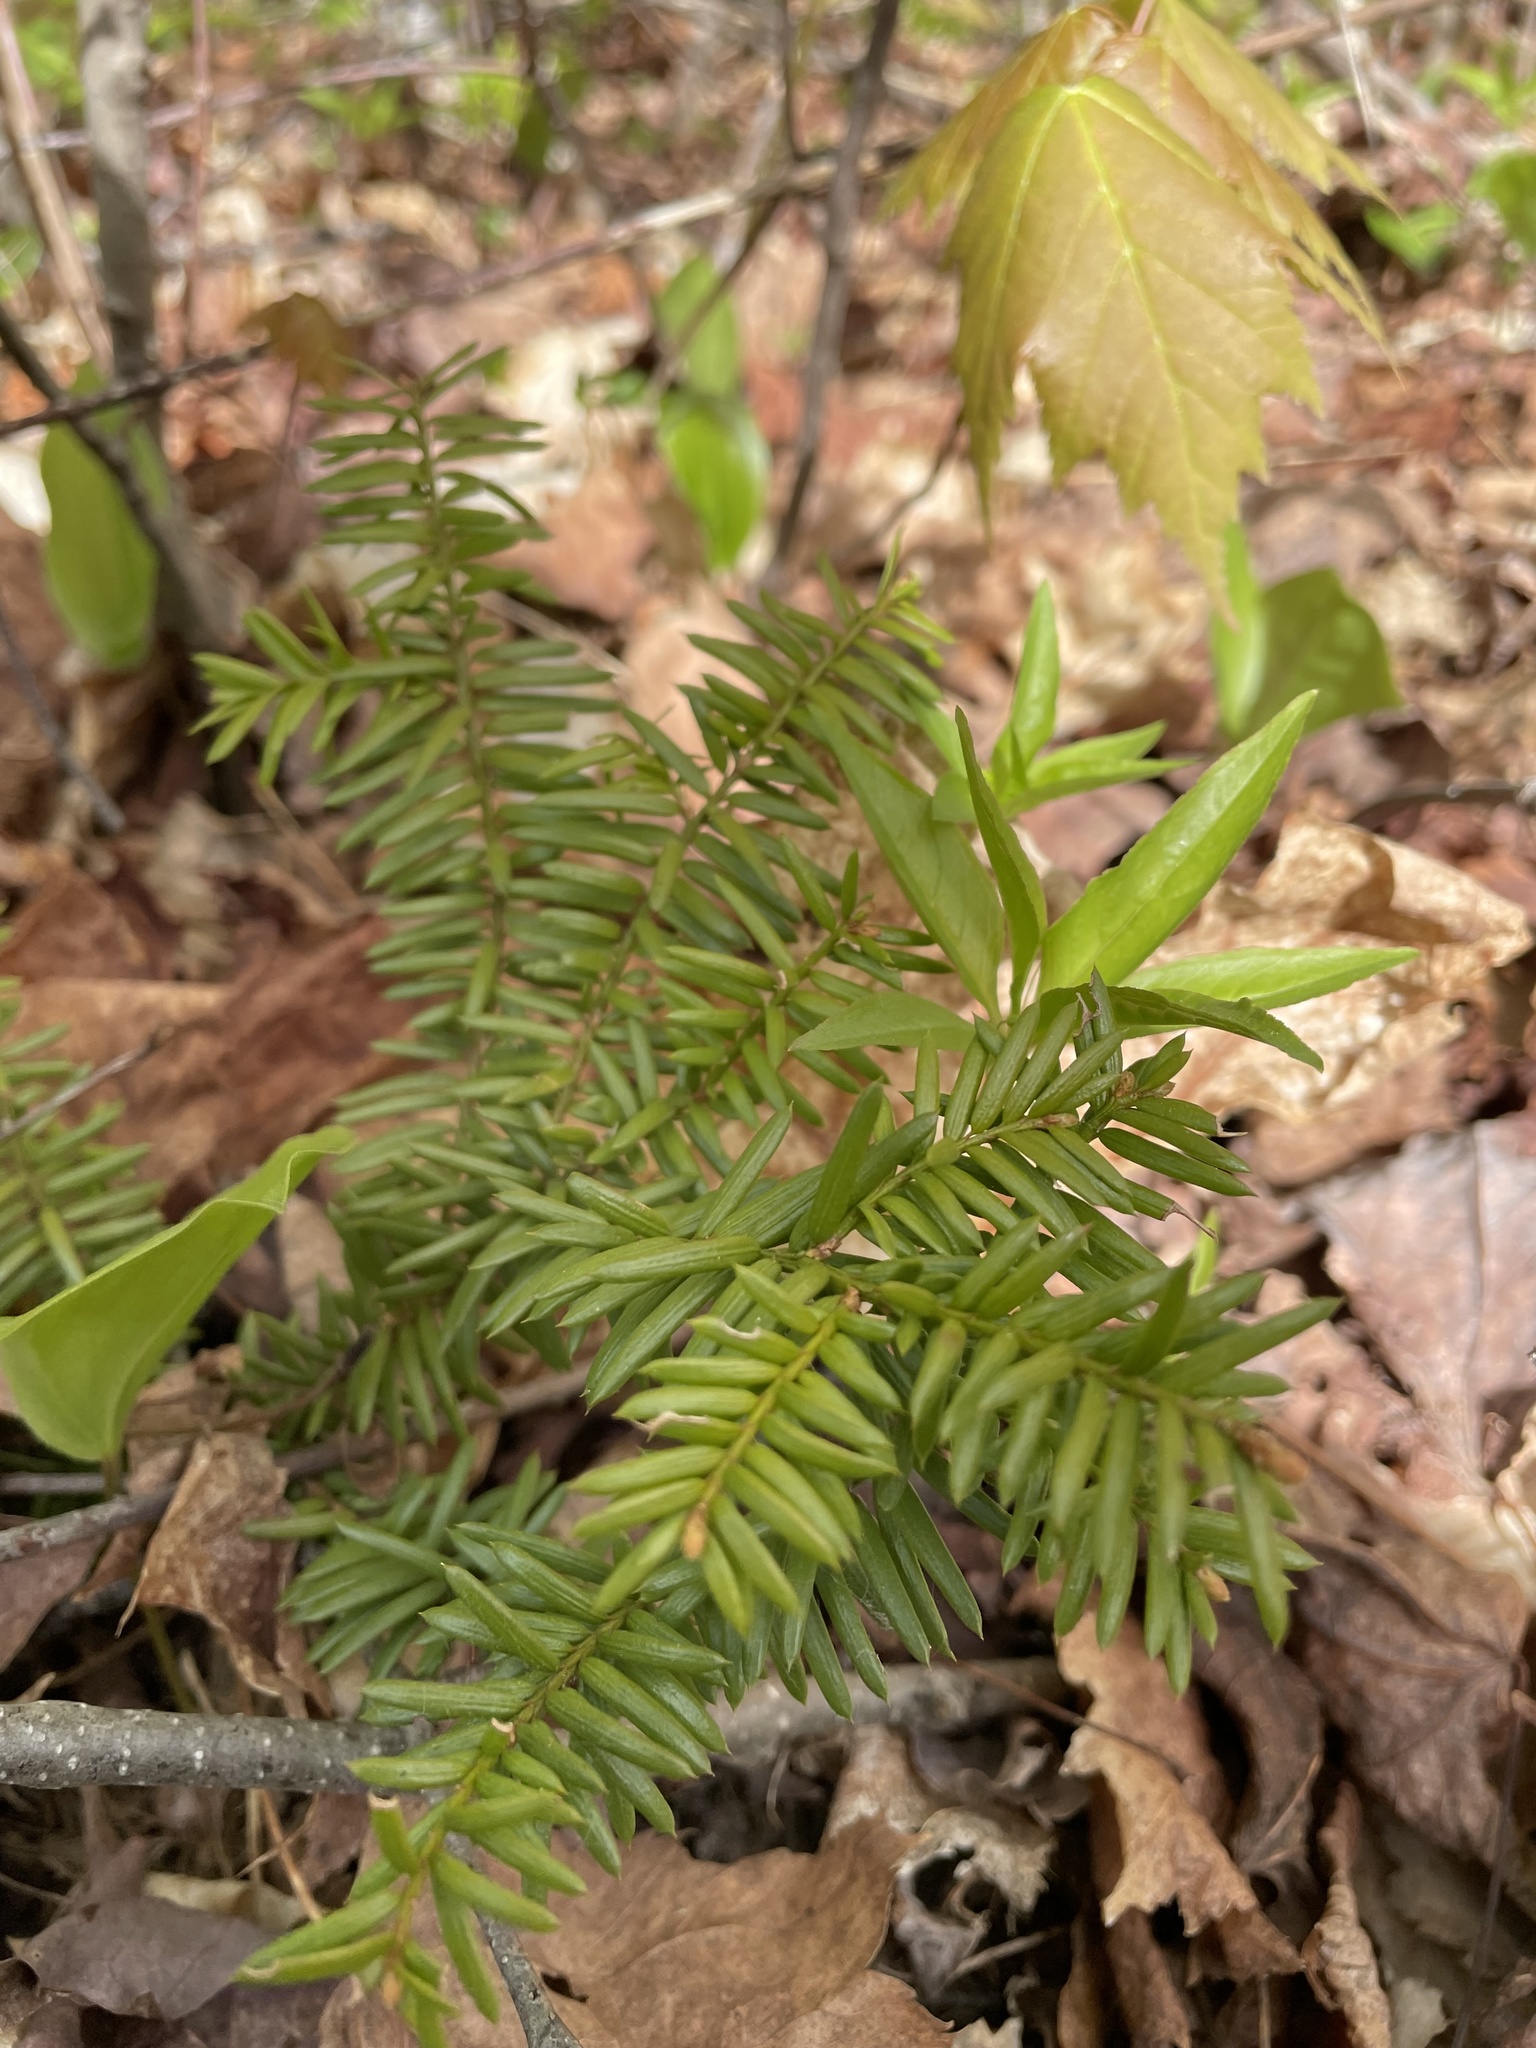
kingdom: Plantae
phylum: Tracheophyta
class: Pinopsida
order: Pinales
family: Taxaceae
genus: Taxus
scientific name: Taxus canadensis
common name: American yew
